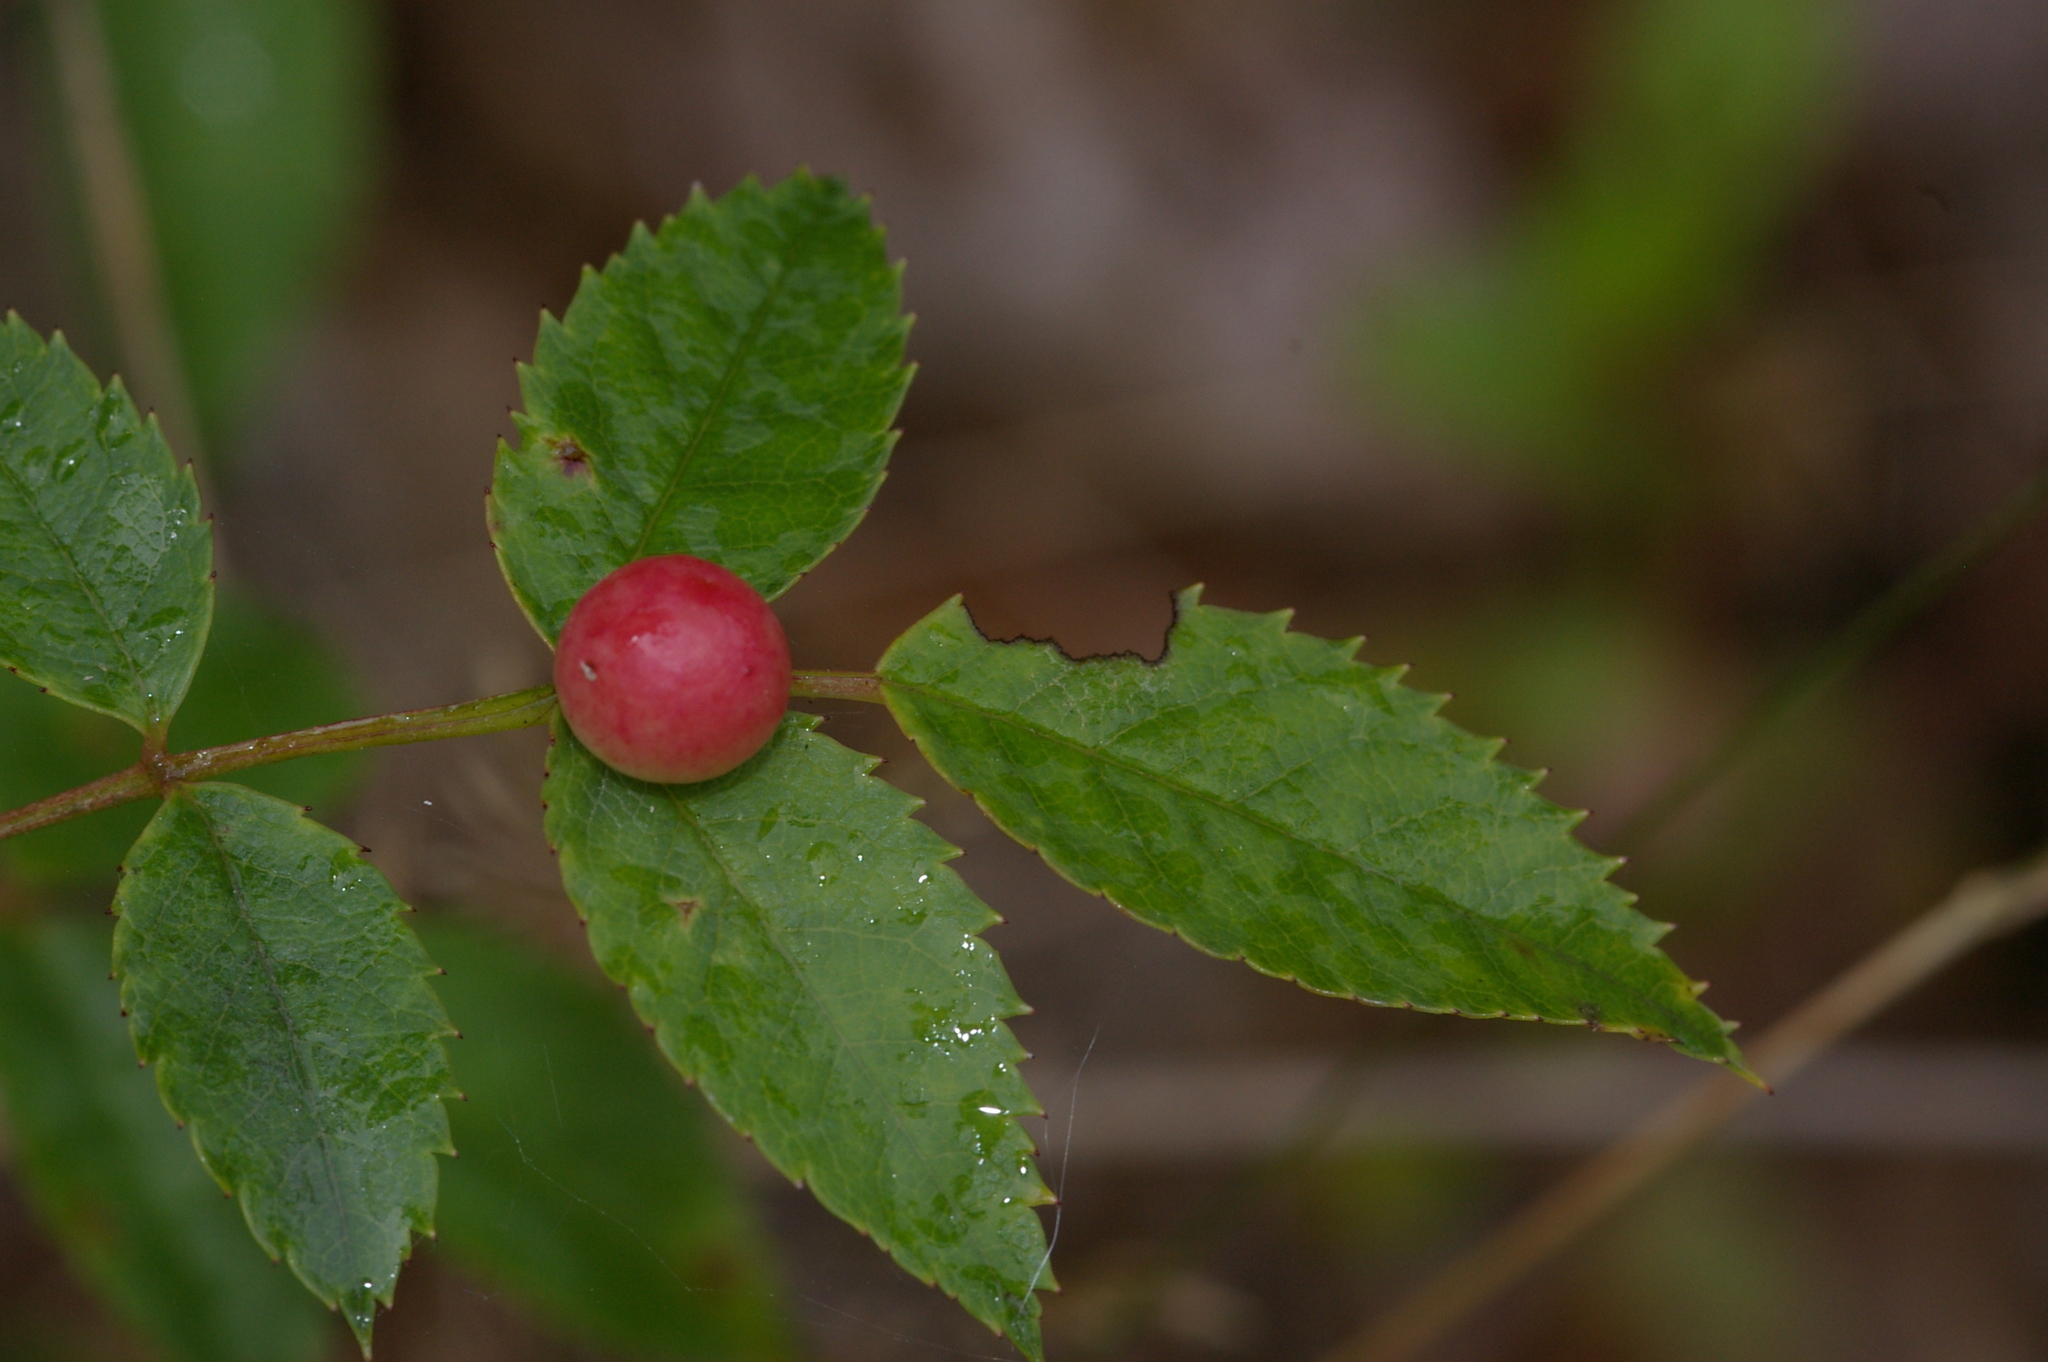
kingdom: Animalia
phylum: Arthropoda
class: Insecta
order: Hymenoptera
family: Cynipidae
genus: Diplolepis
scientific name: Diplolepis
